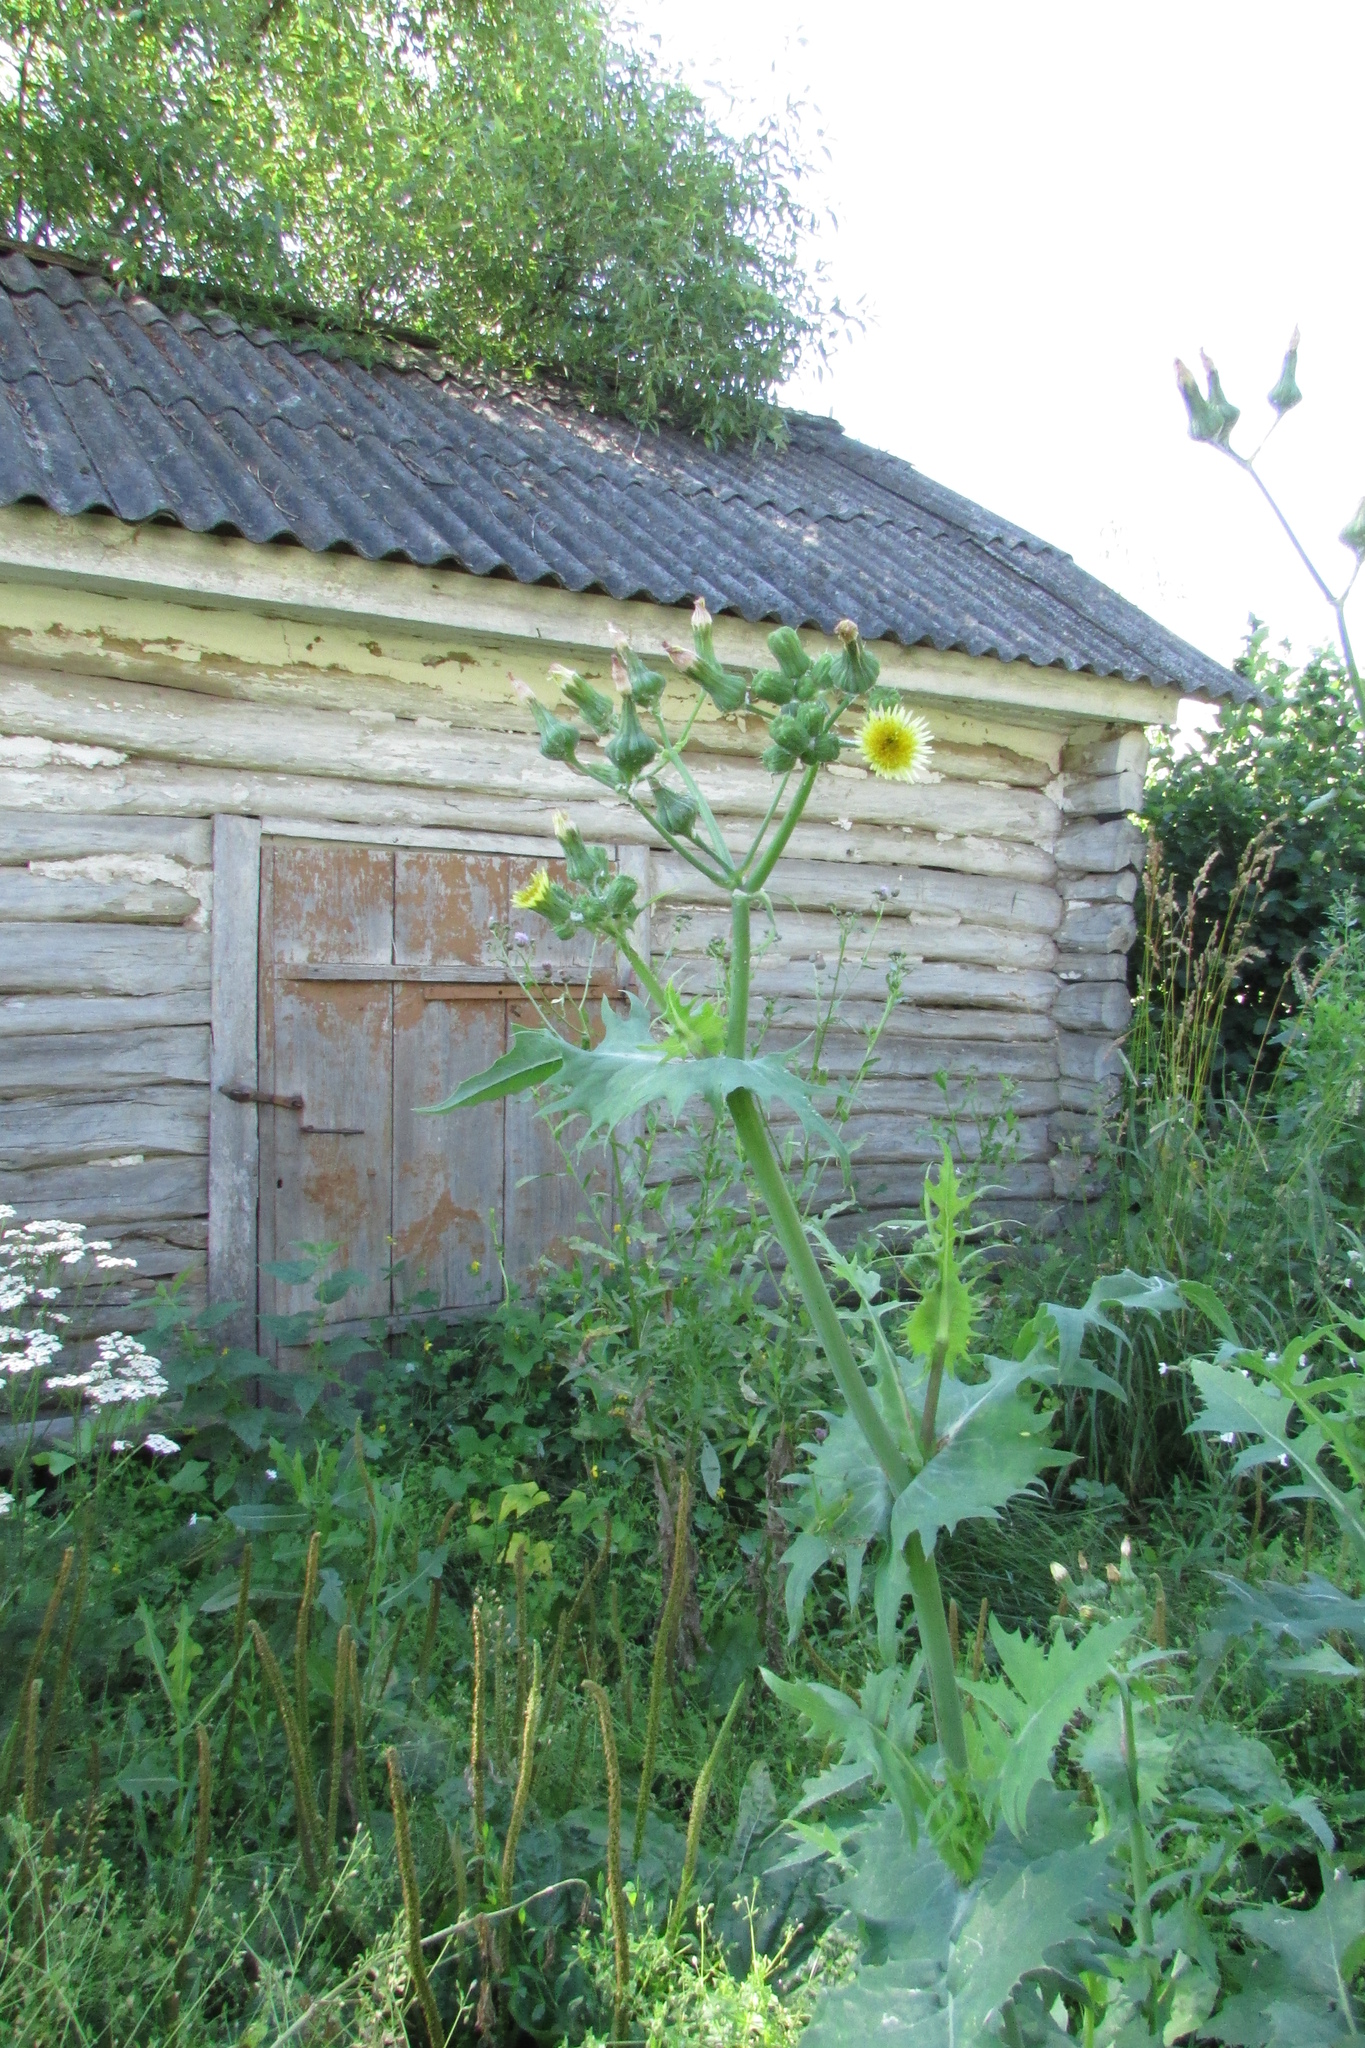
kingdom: Plantae
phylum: Tracheophyta
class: Magnoliopsida
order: Asterales
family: Asteraceae
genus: Sonchus
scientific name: Sonchus oleraceus
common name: Common sowthistle
